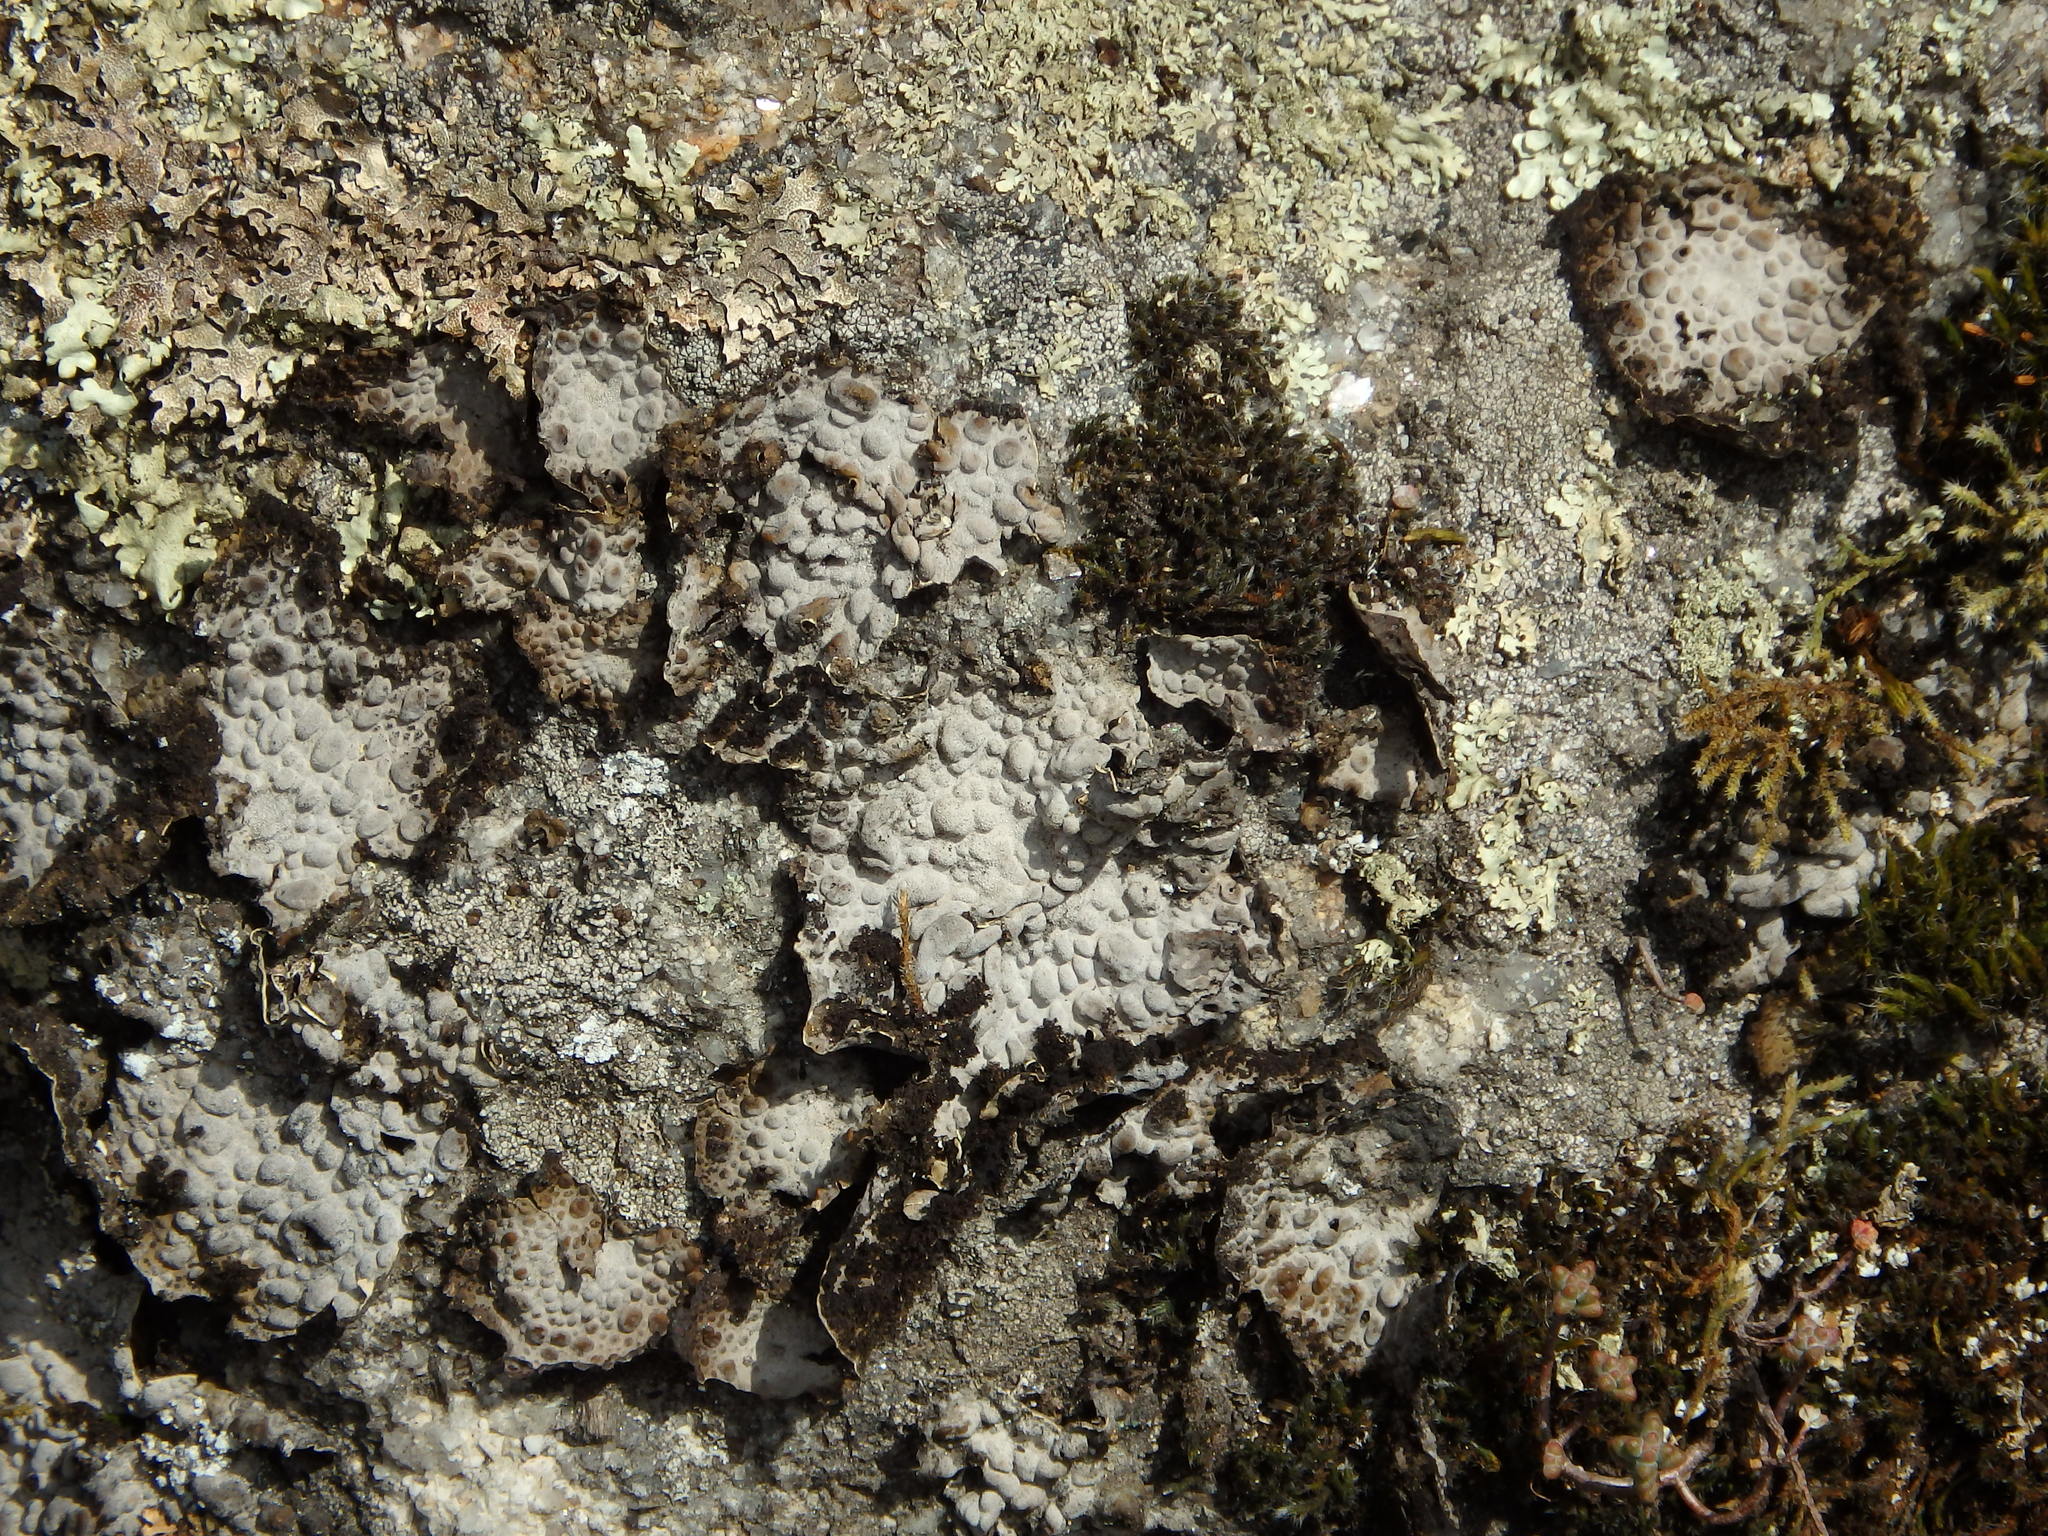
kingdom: Fungi
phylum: Ascomycota
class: Lecanoromycetes
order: Umbilicariales
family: Umbilicariaceae
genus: Lasallia
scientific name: Lasallia pustulata
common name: Blistered toadskin lichen
